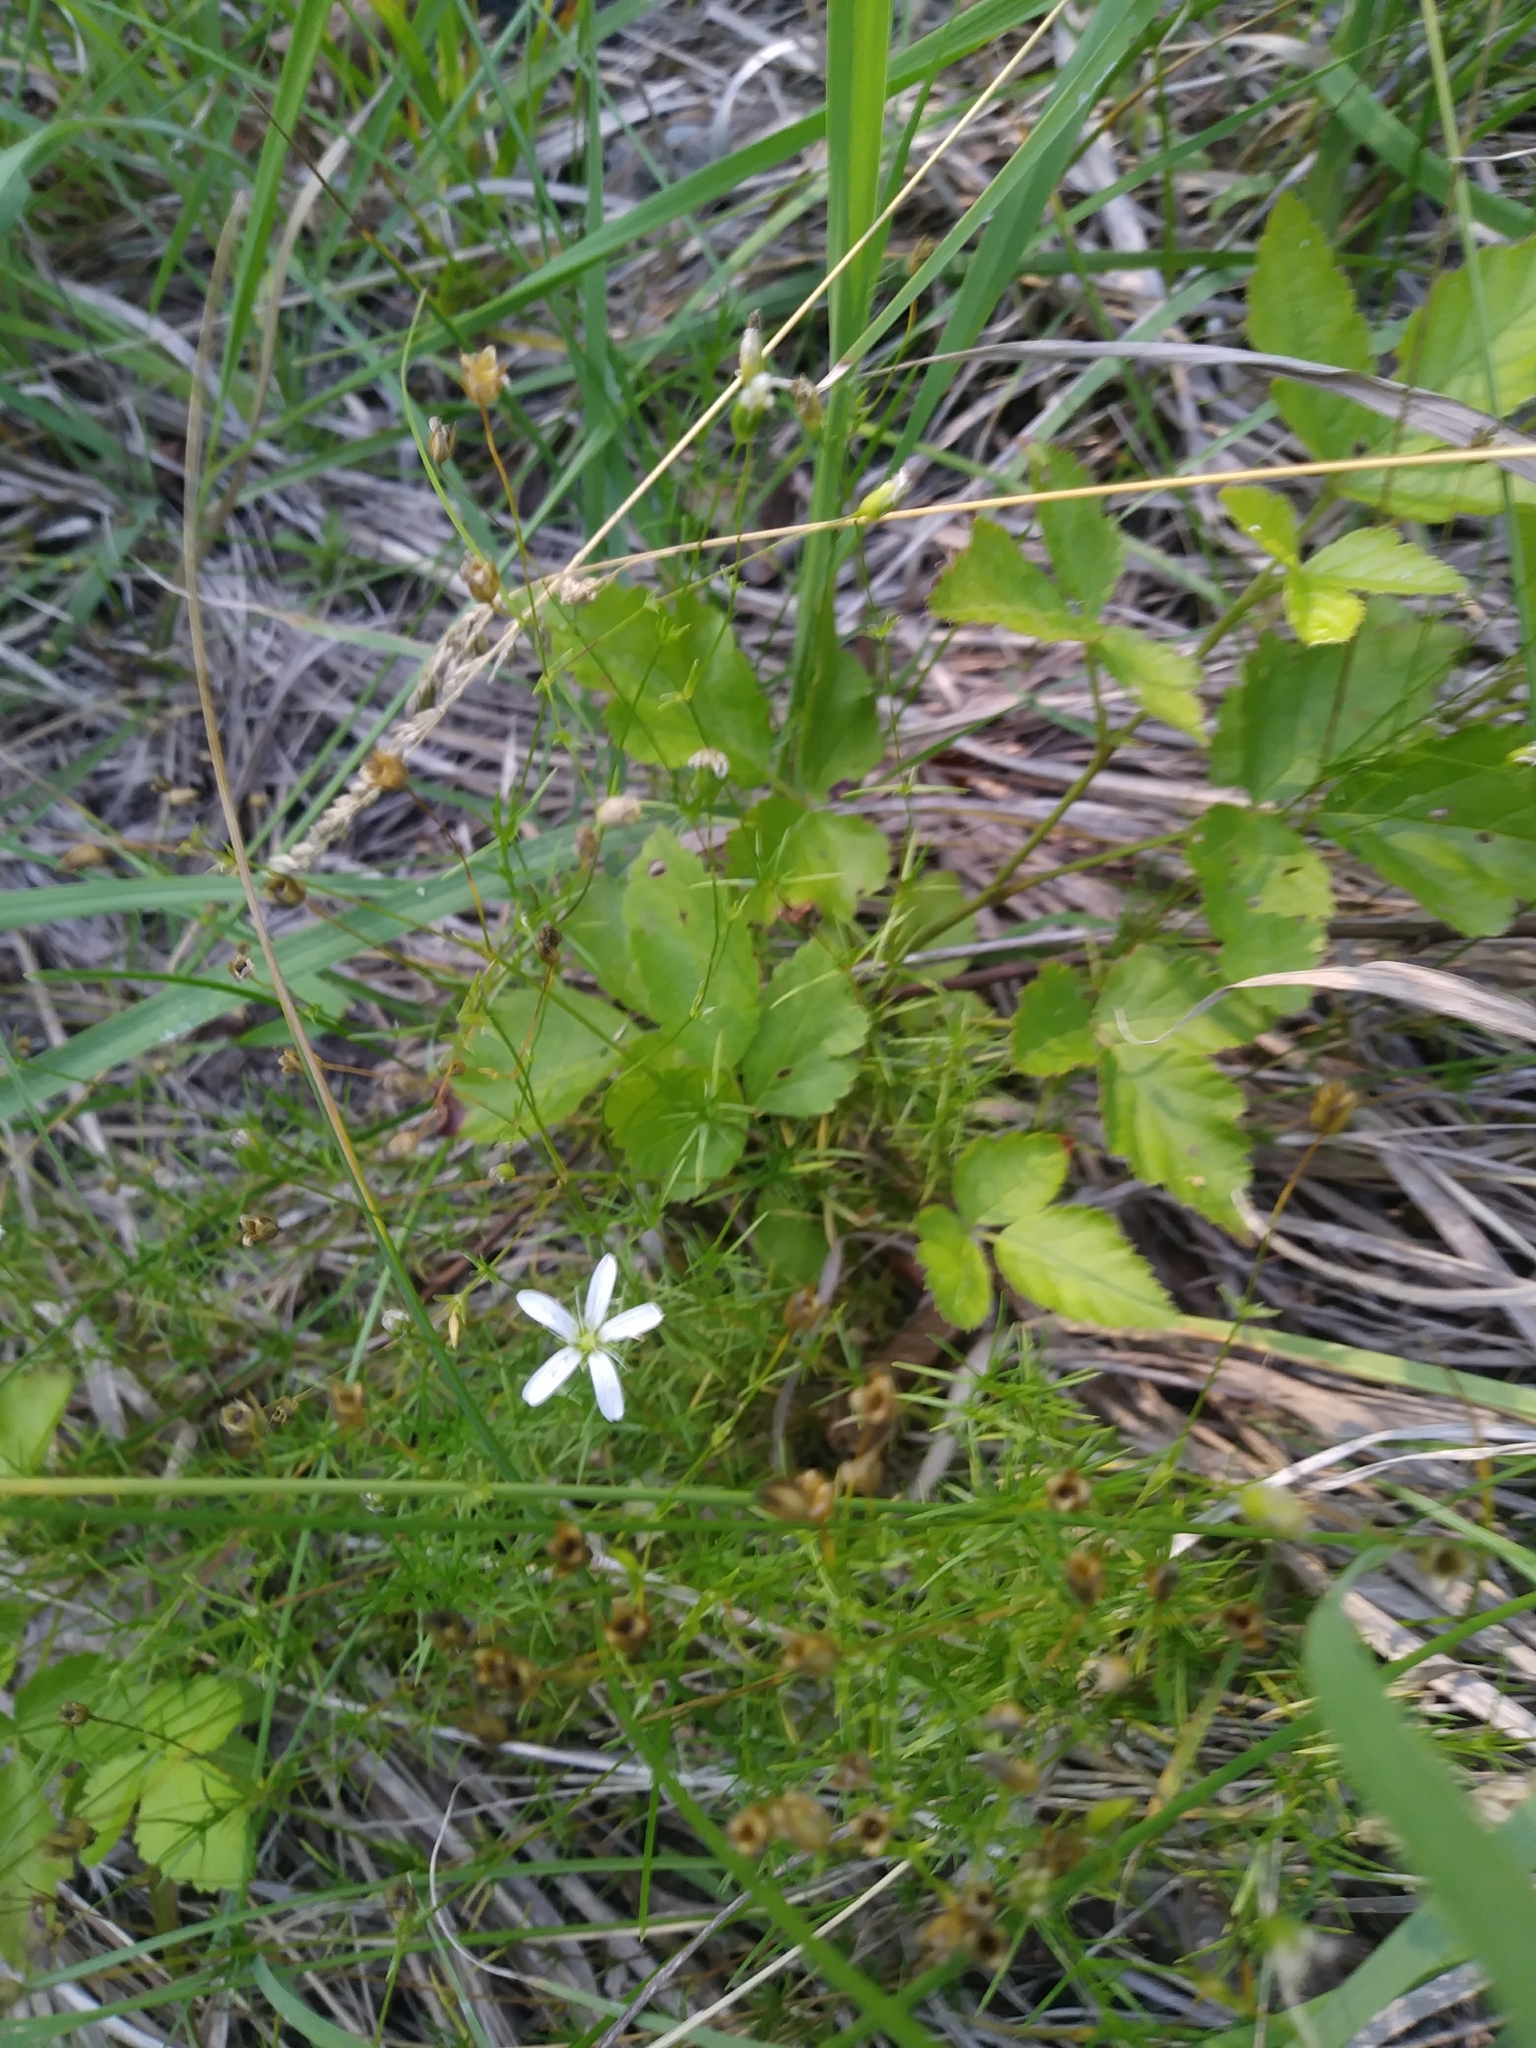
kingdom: Plantae
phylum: Tracheophyta
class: Magnoliopsida
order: Caryophyllales
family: Caryophyllaceae
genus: Sabulina
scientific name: Sabulina michauxii
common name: Michaux's stitchwort
